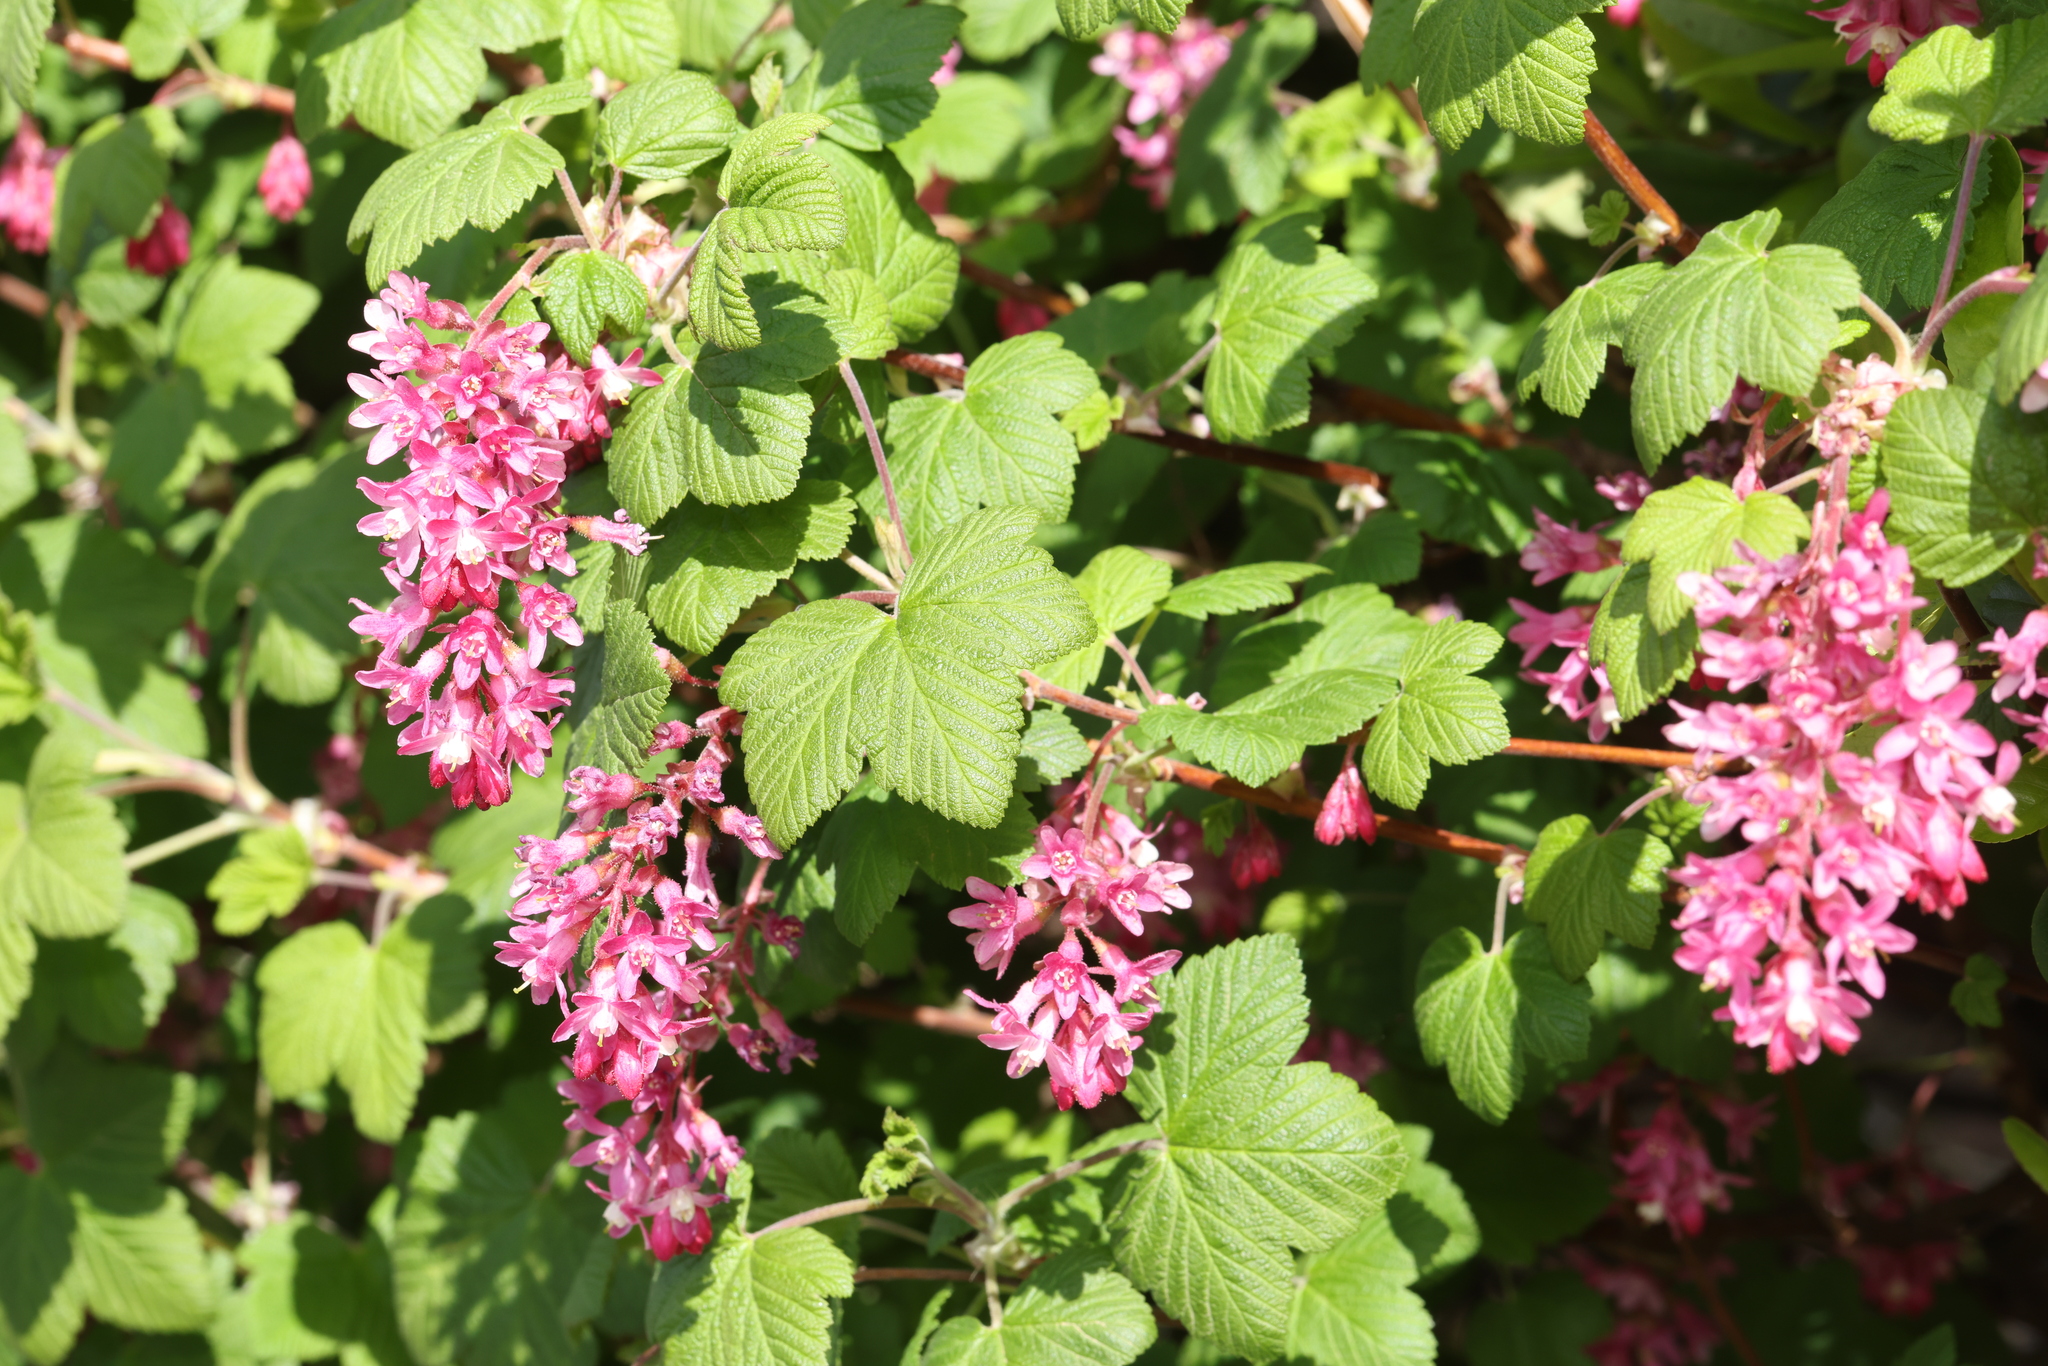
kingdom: Plantae
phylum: Tracheophyta
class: Magnoliopsida
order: Saxifragales
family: Grossulariaceae
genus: Ribes
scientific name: Ribes sanguineum
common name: Flowering currant
